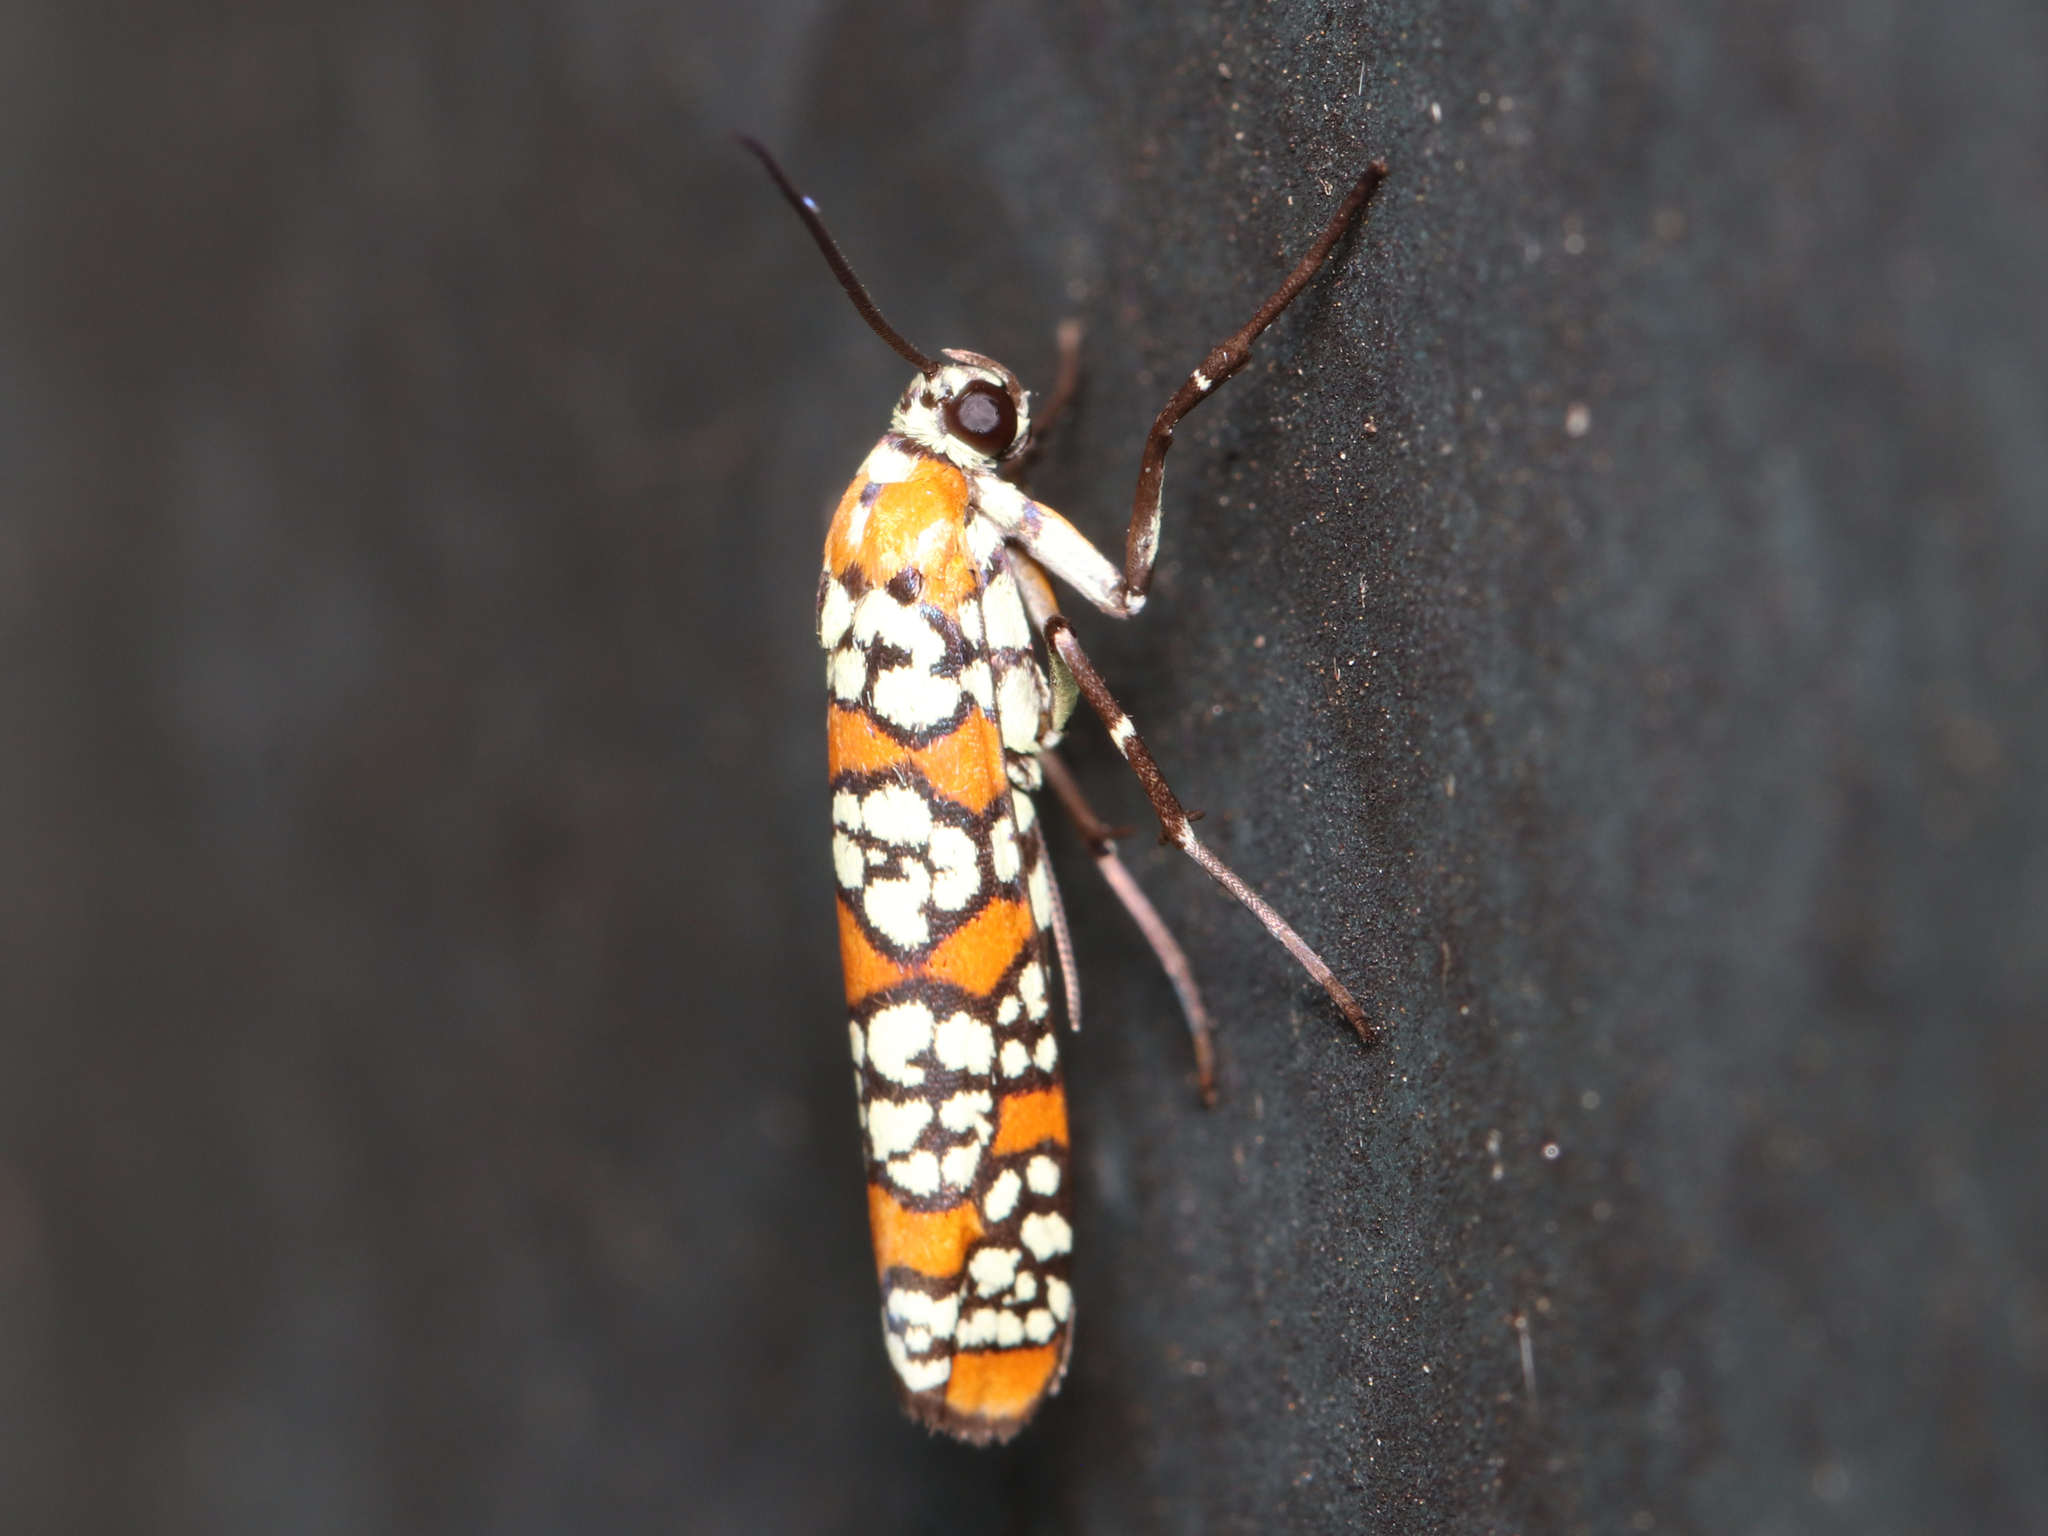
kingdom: Animalia
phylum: Arthropoda
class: Insecta
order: Lepidoptera
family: Attevidae
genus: Atteva
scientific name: Atteva punctella
